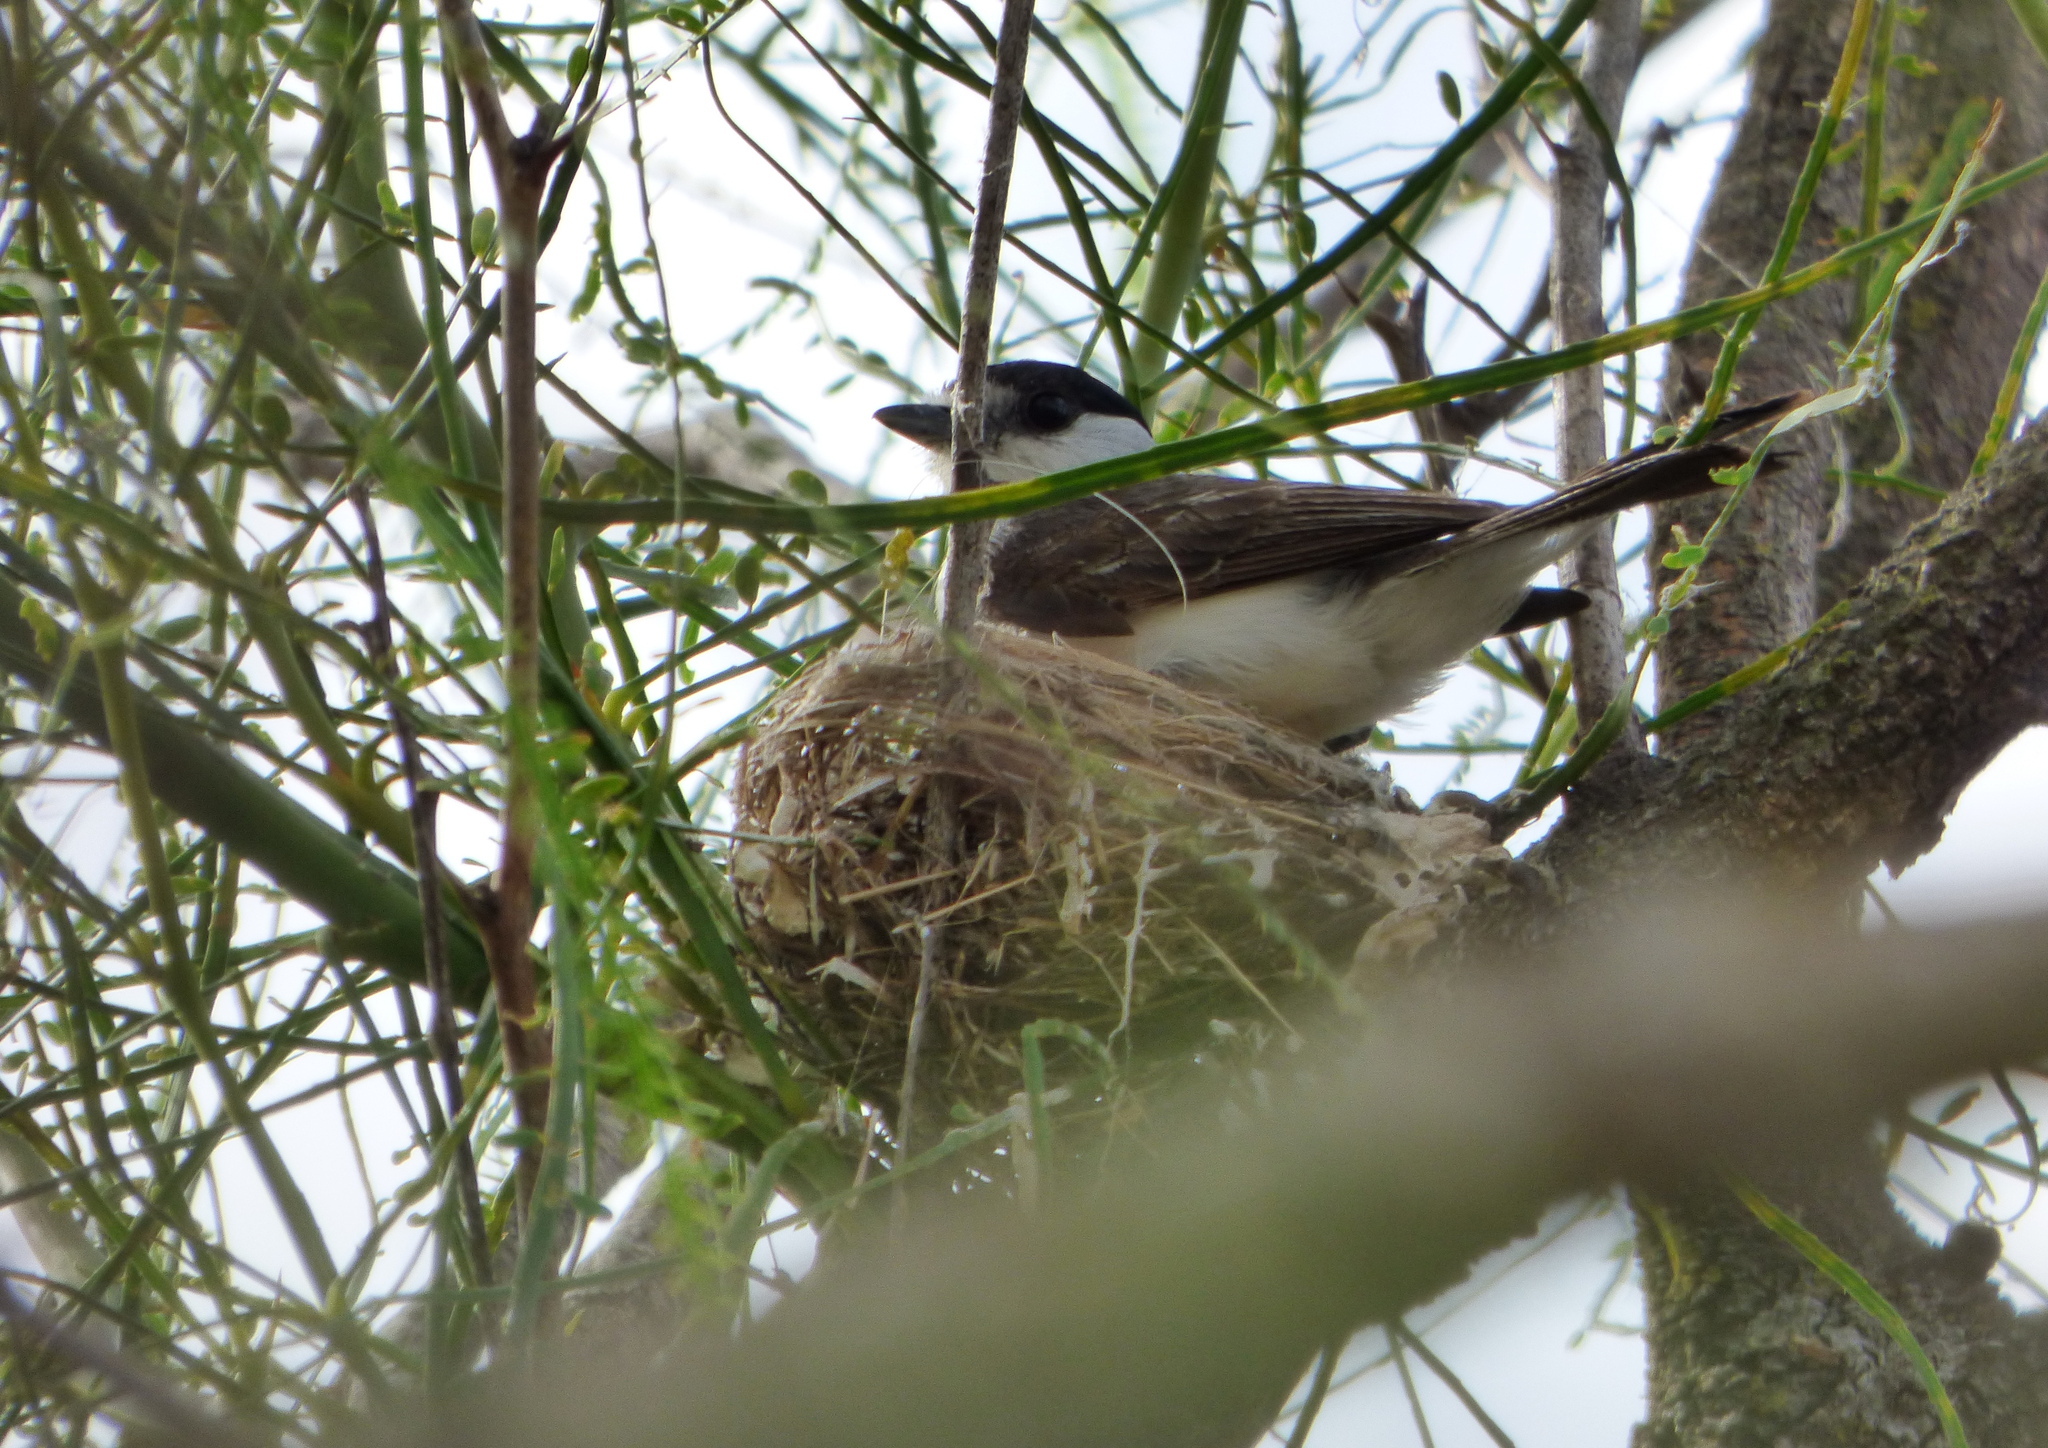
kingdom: Animalia
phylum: Chordata
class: Aves
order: Passeriformes
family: Cotingidae
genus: Xenopsaris
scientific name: Xenopsaris albinucha
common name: White-naped xenopsaris
